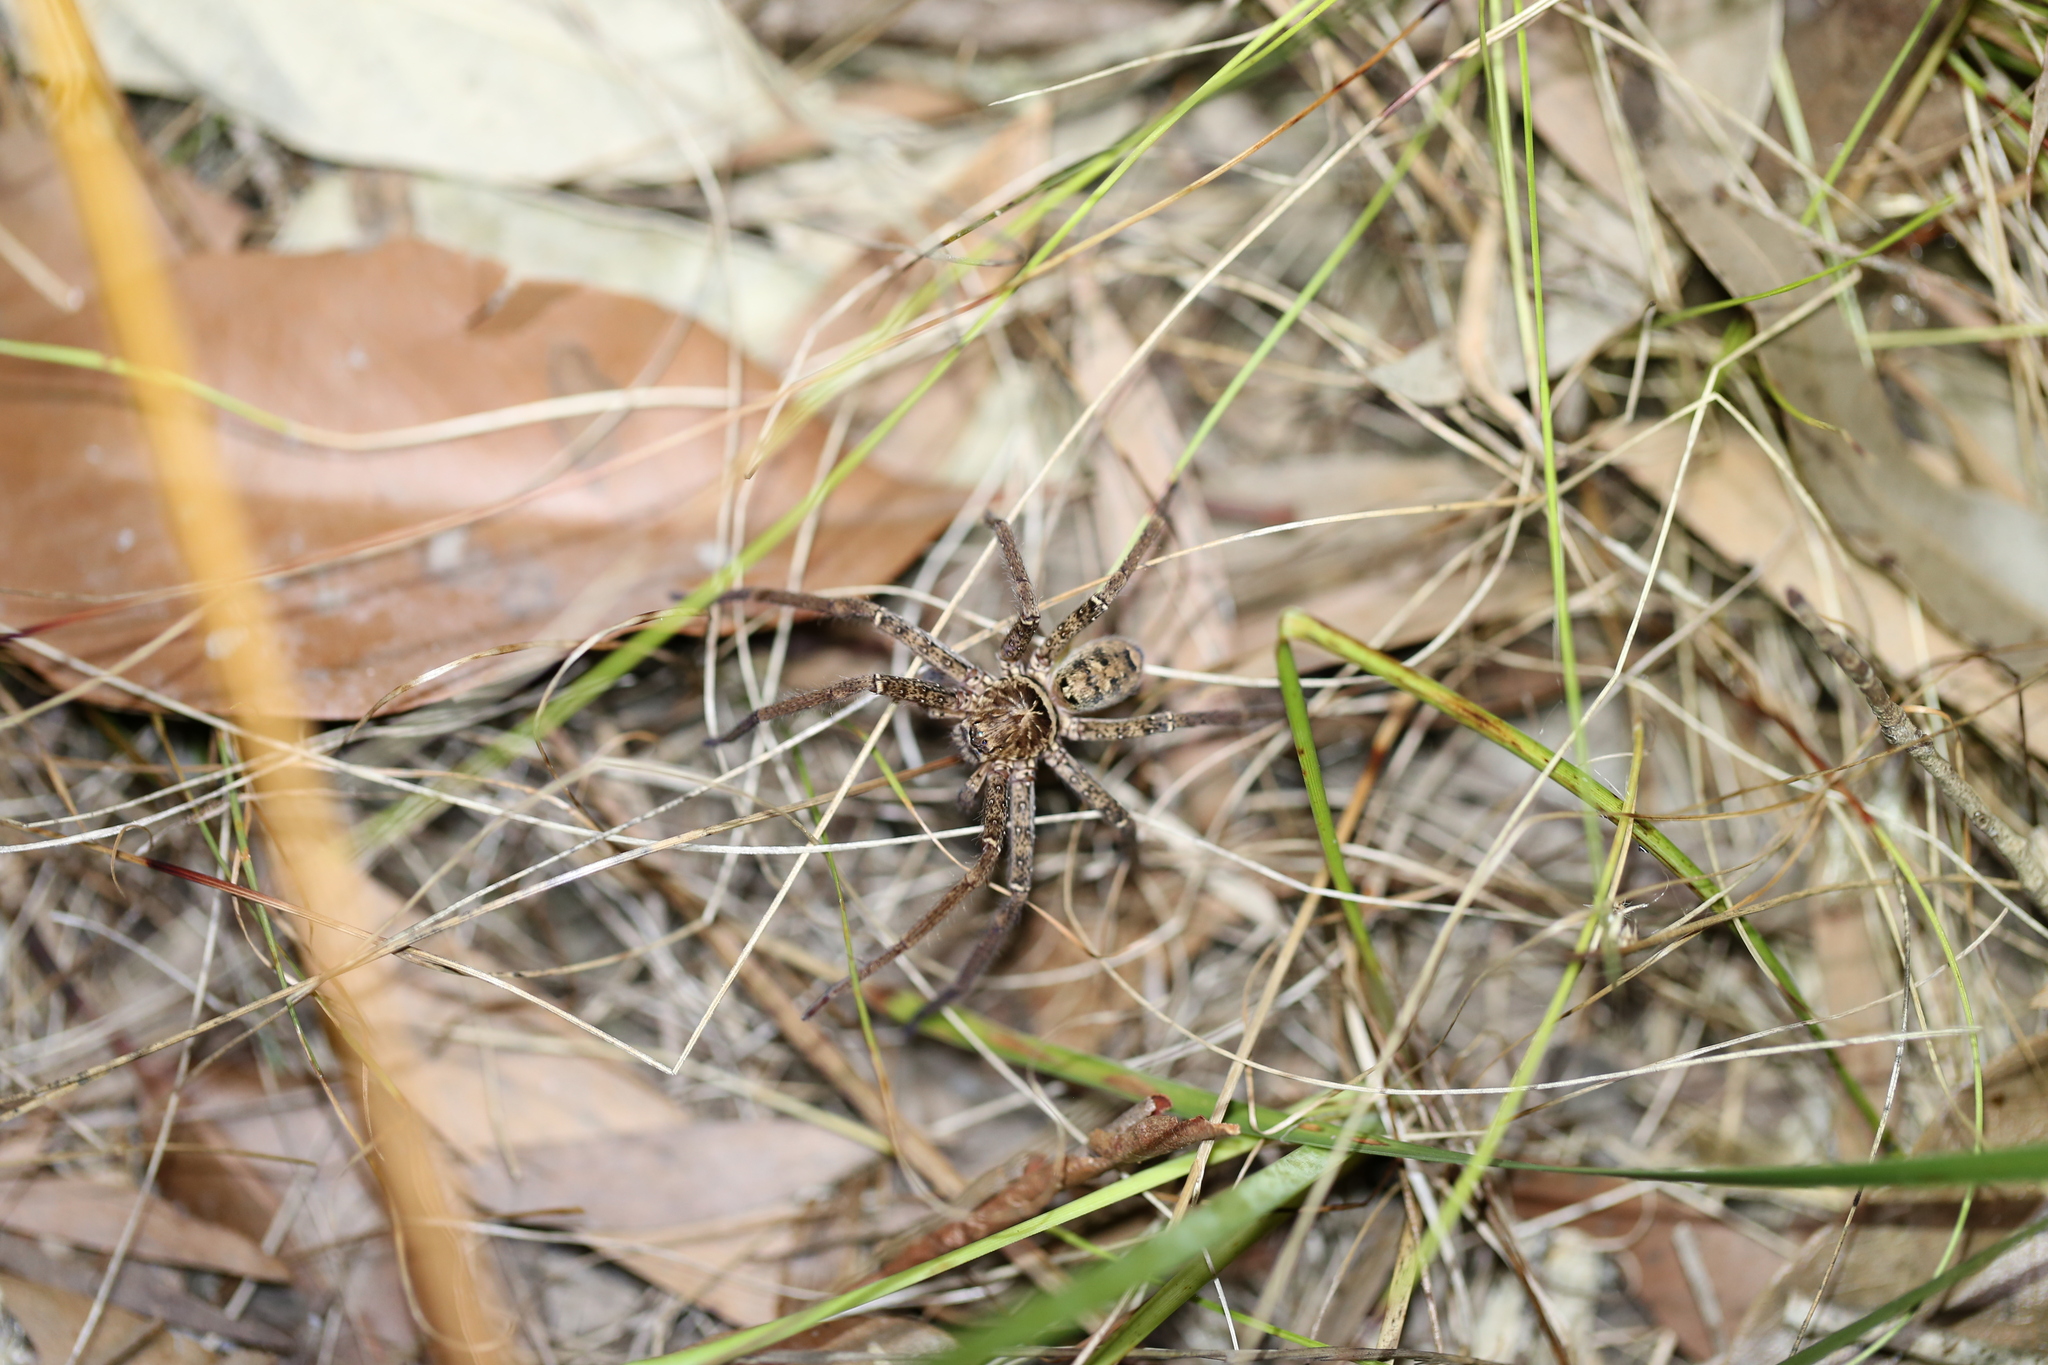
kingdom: Animalia
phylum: Arthropoda
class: Arachnida
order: Araneae
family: Sparassidae
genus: Heteropoda
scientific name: Heteropoda jugulans
